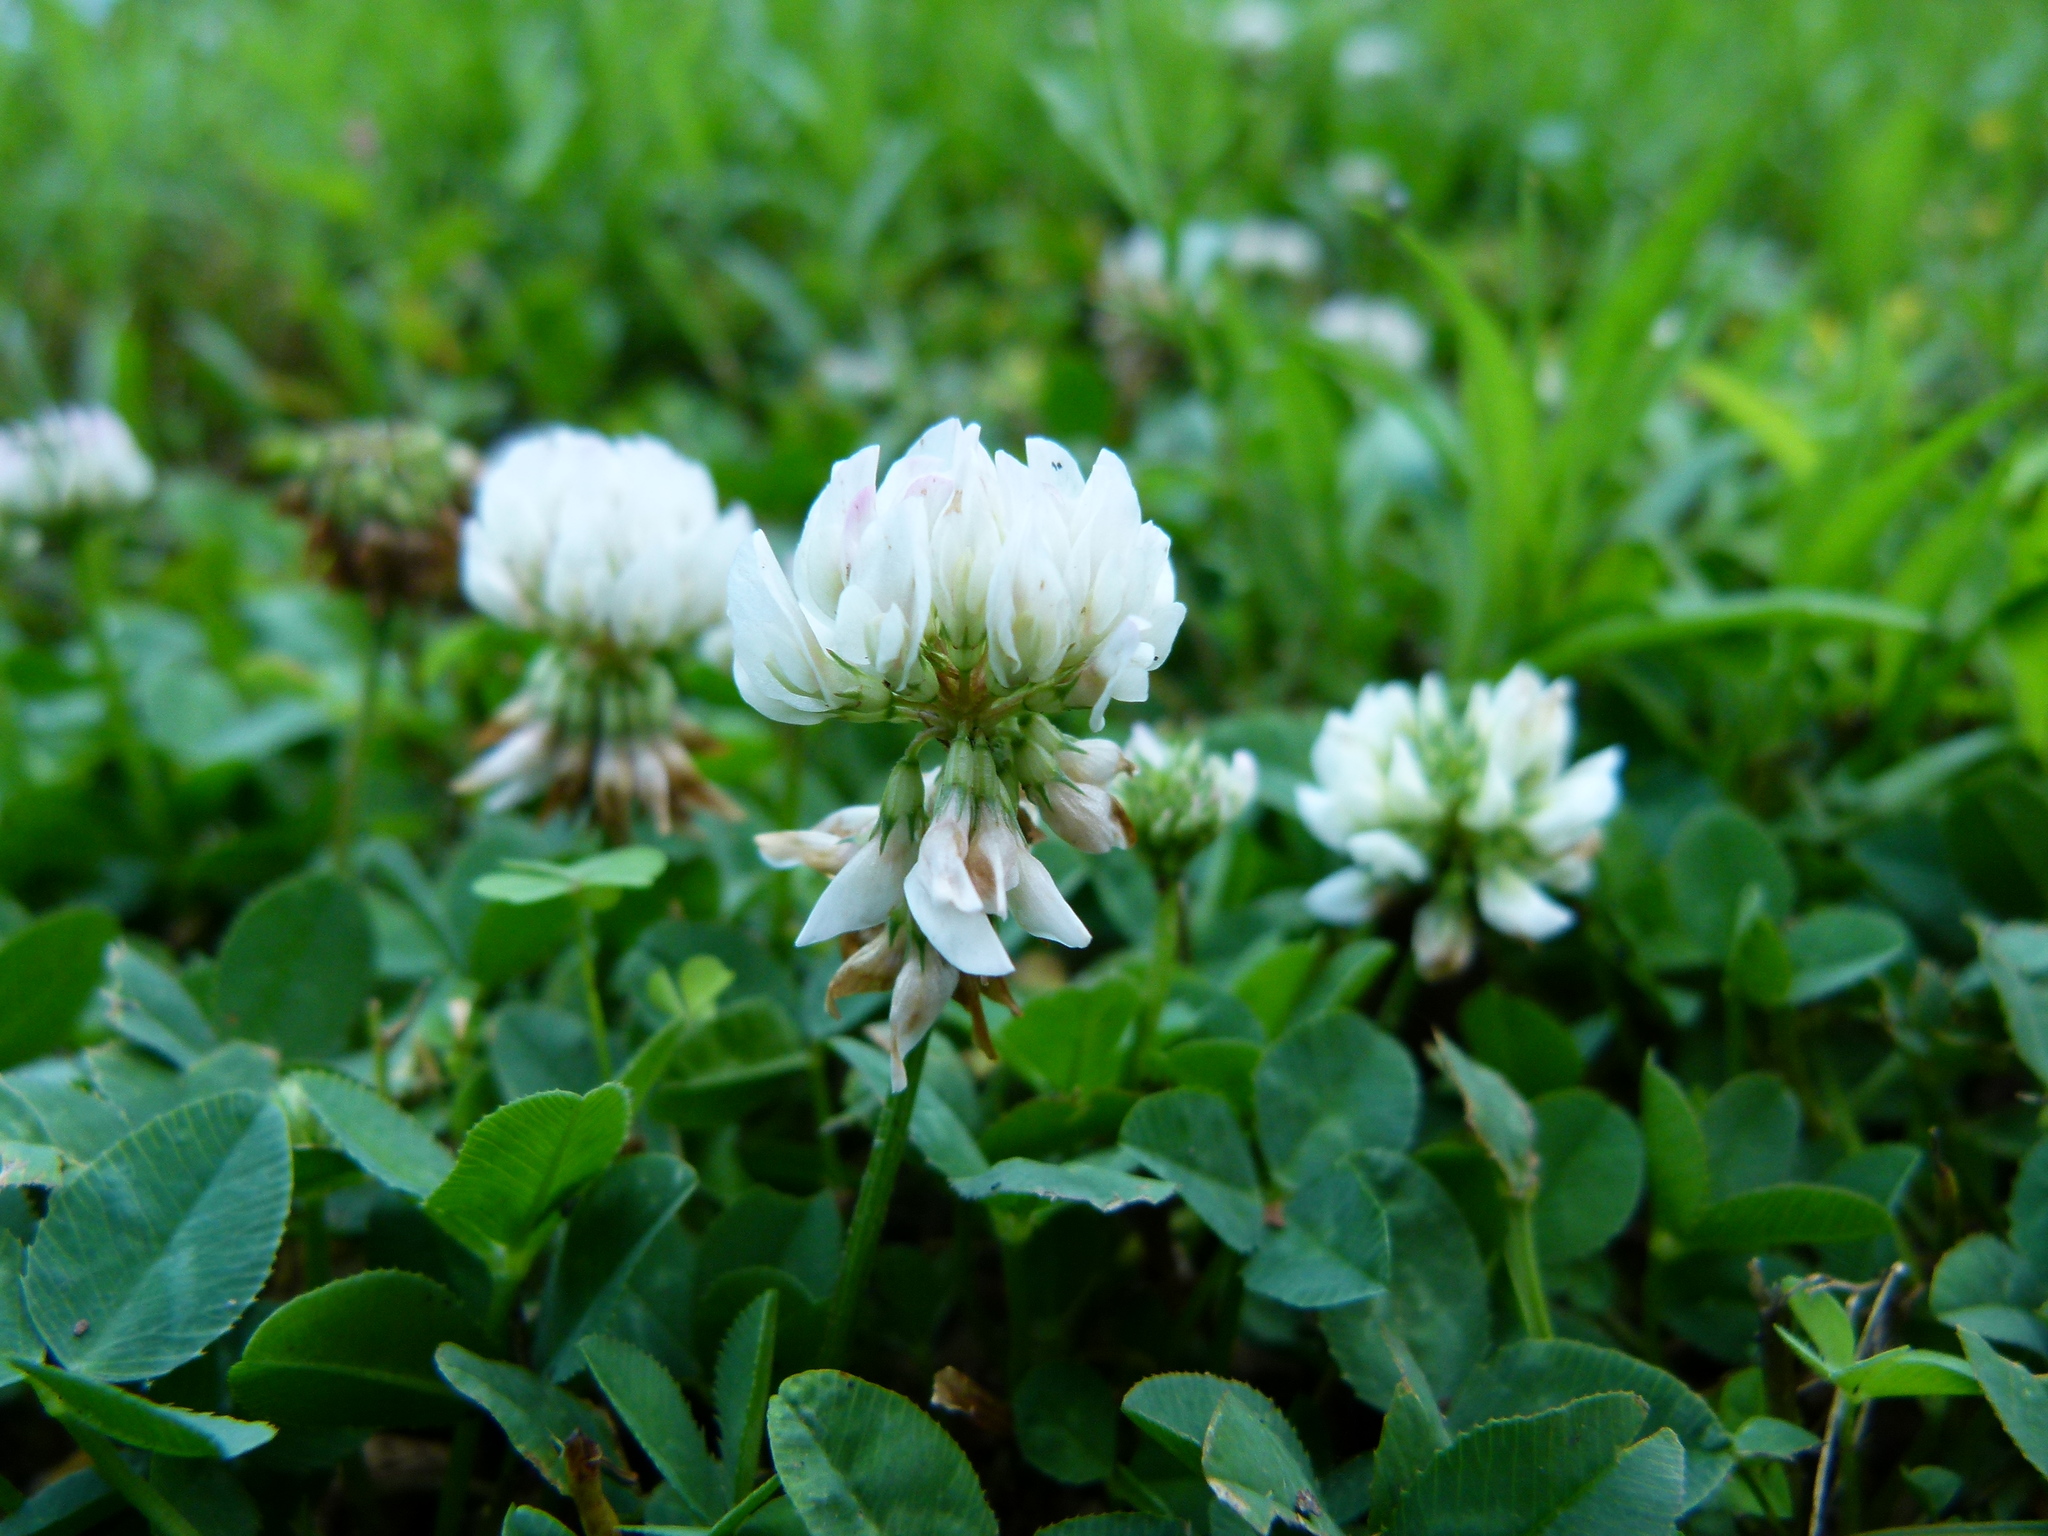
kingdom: Plantae
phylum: Tracheophyta
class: Magnoliopsida
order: Fabales
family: Fabaceae
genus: Trifolium
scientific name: Trifolium repens
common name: White clover
